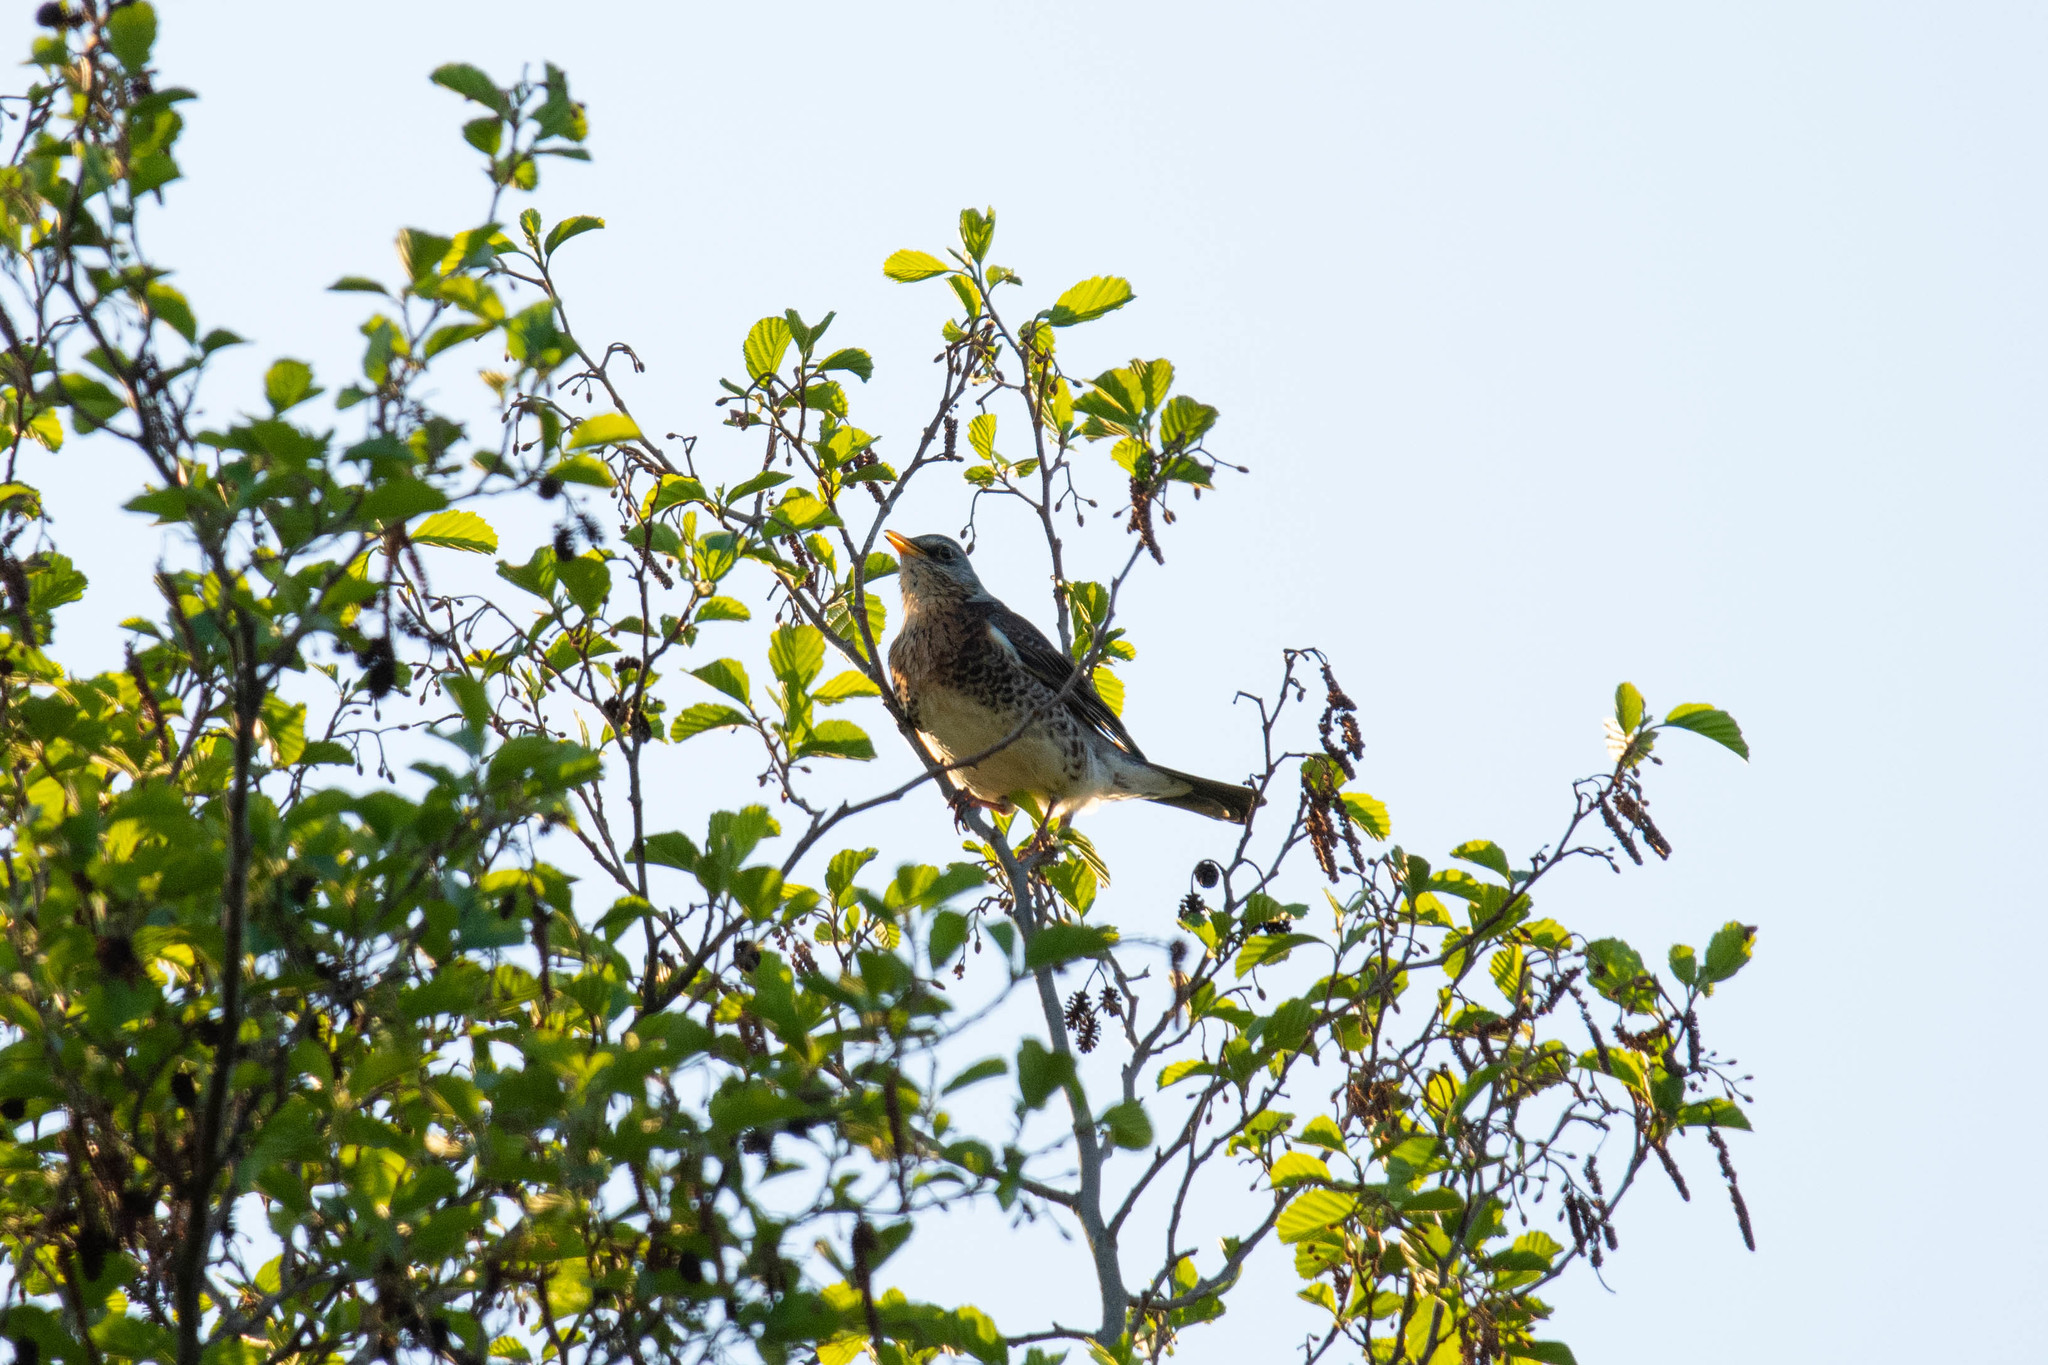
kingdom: Animalia
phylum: Chordata
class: Aves
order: Passeriformes
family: Turdidae
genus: Turdus
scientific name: Turdus pilaris
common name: Fieldfare
